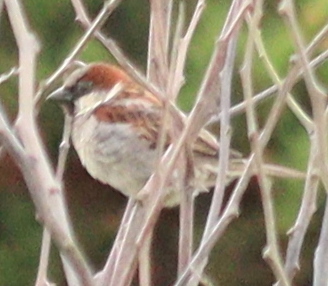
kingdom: Animalia
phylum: Chordata
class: Aves
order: Passeriformes
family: Passeridae
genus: Passer
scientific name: Passer domesticus
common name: House sparrow
